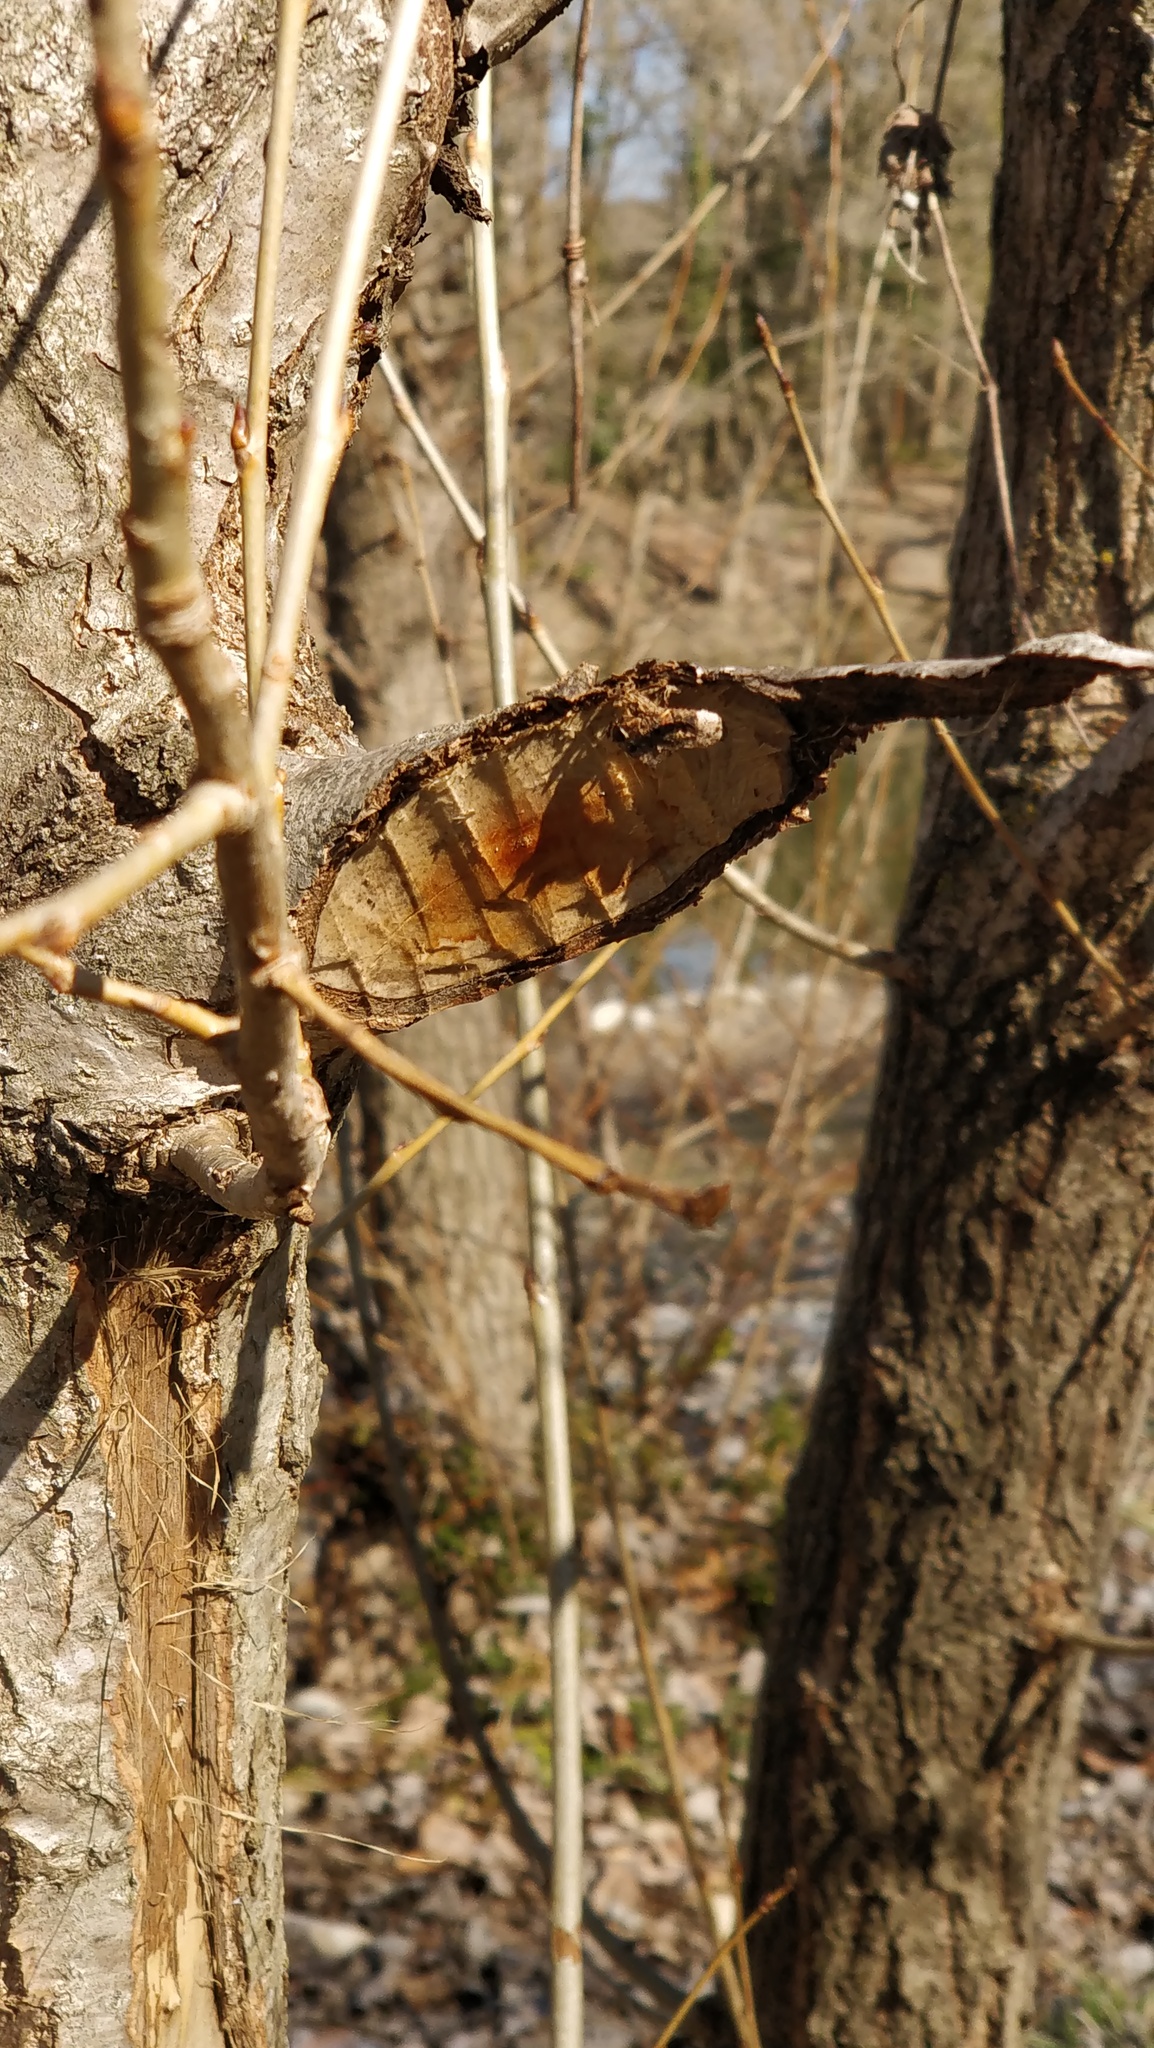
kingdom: Animalia
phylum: Chordata
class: Mammalia
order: Rodentia
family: Castoridae
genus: Castor
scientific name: Castor fiber
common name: Eurasian beaver
